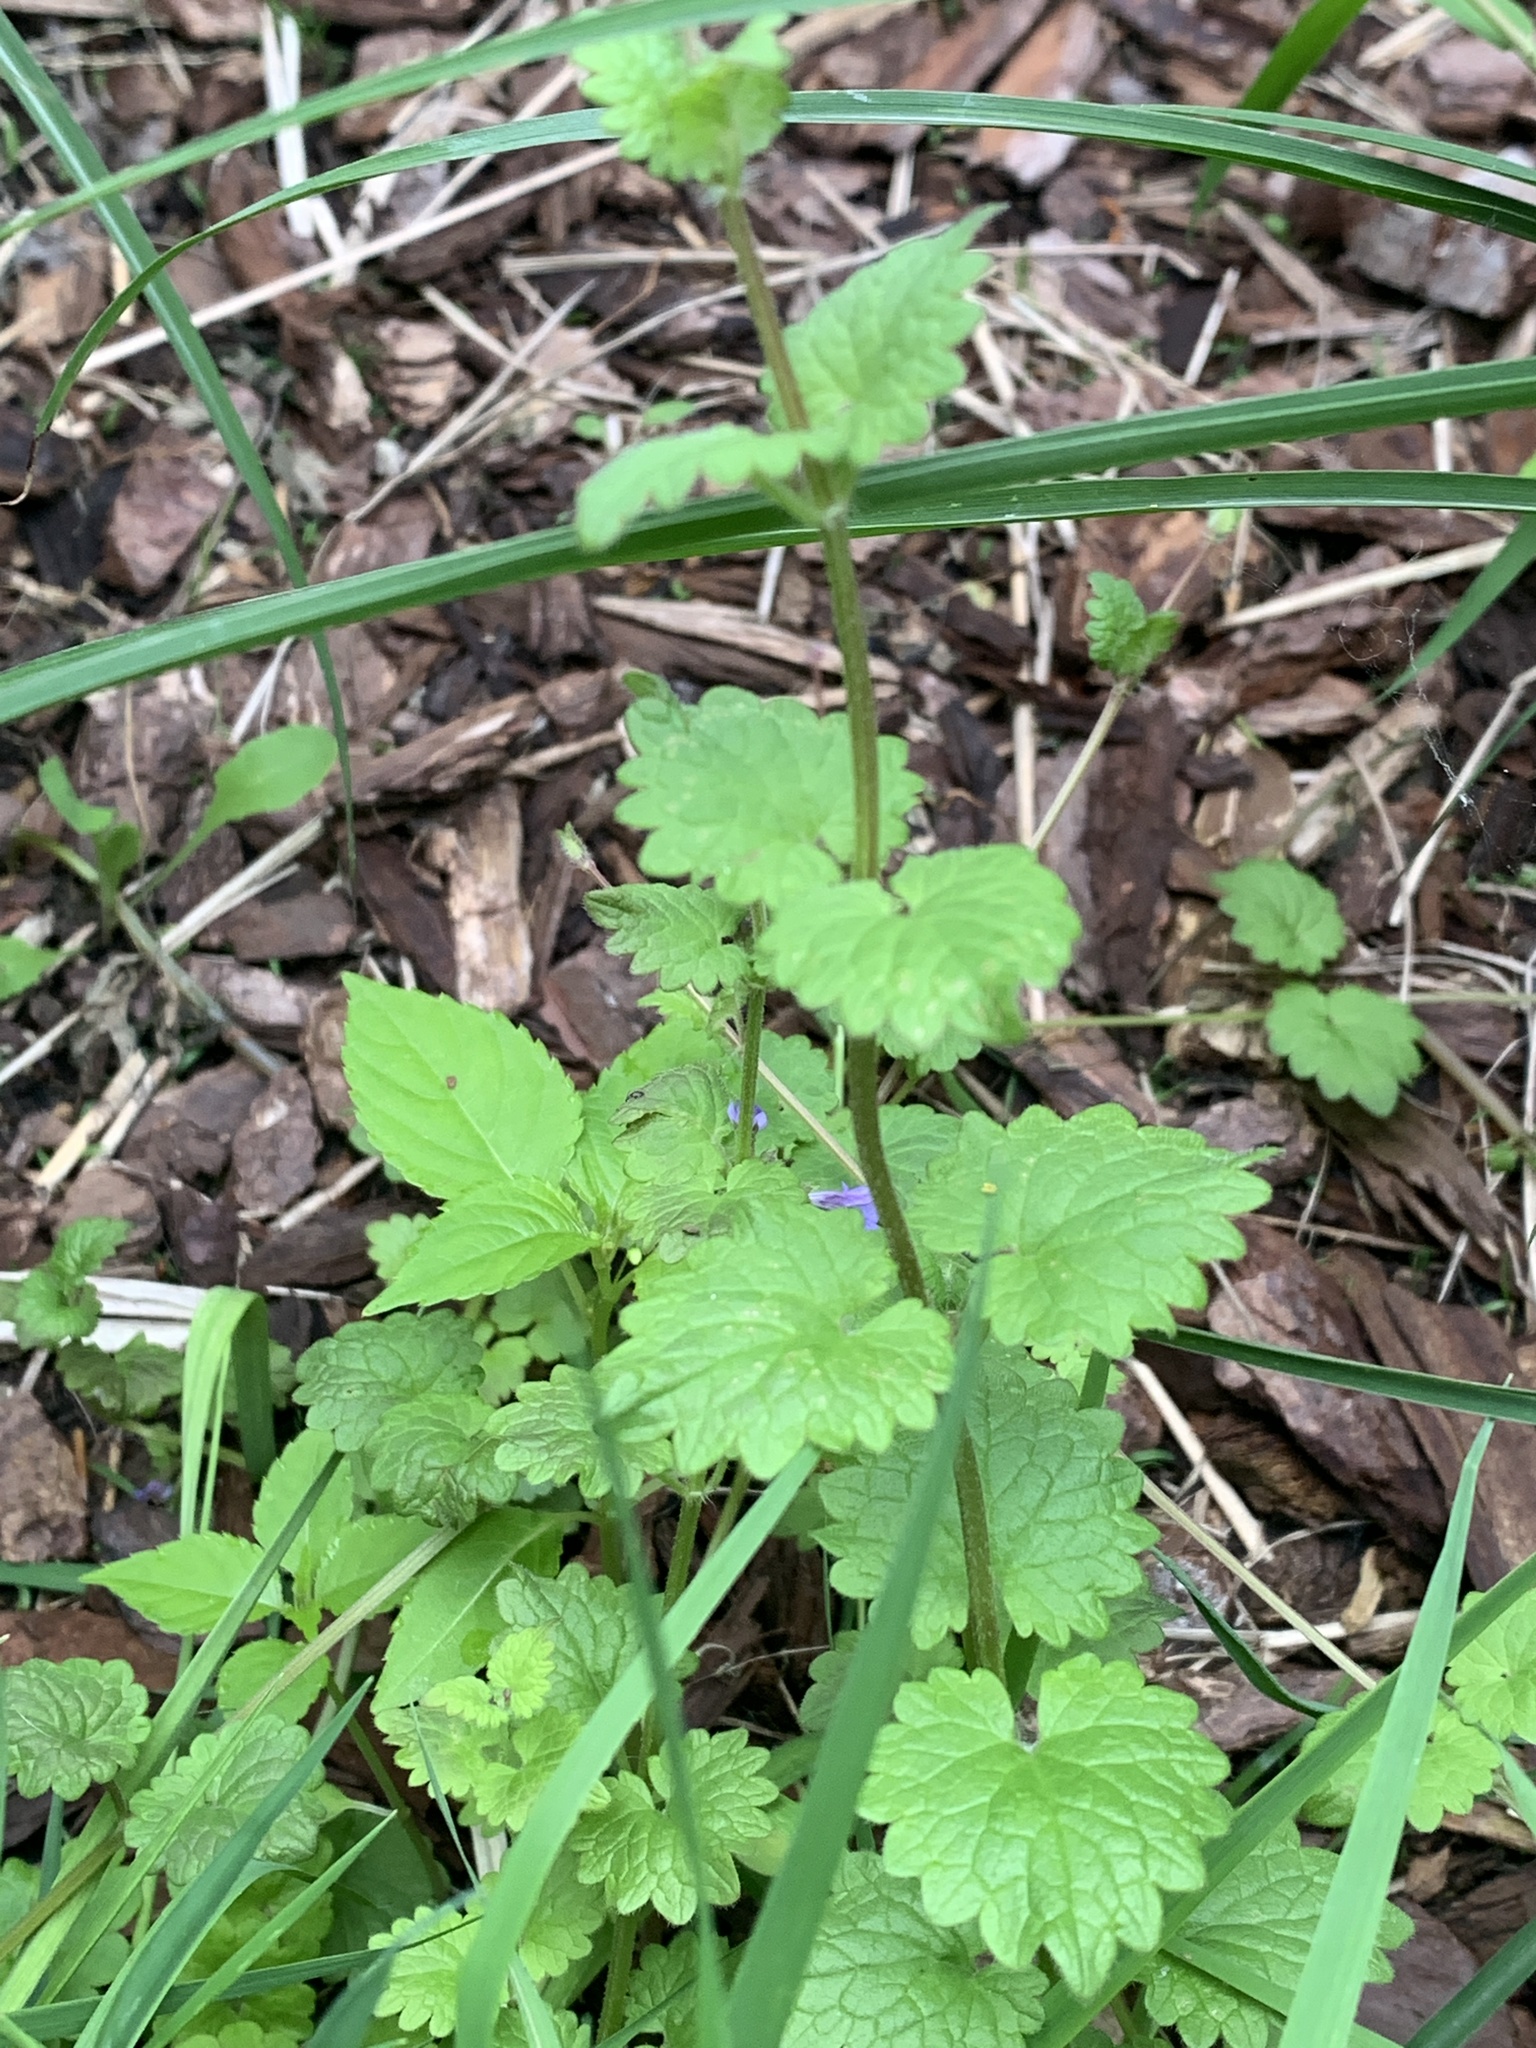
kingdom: Plantae
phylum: Tracheophyta
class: Magnoliopsida
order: Lamiales
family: Lamiaceae
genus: Glechoma
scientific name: Glechoma hederacea
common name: Ground ivy
